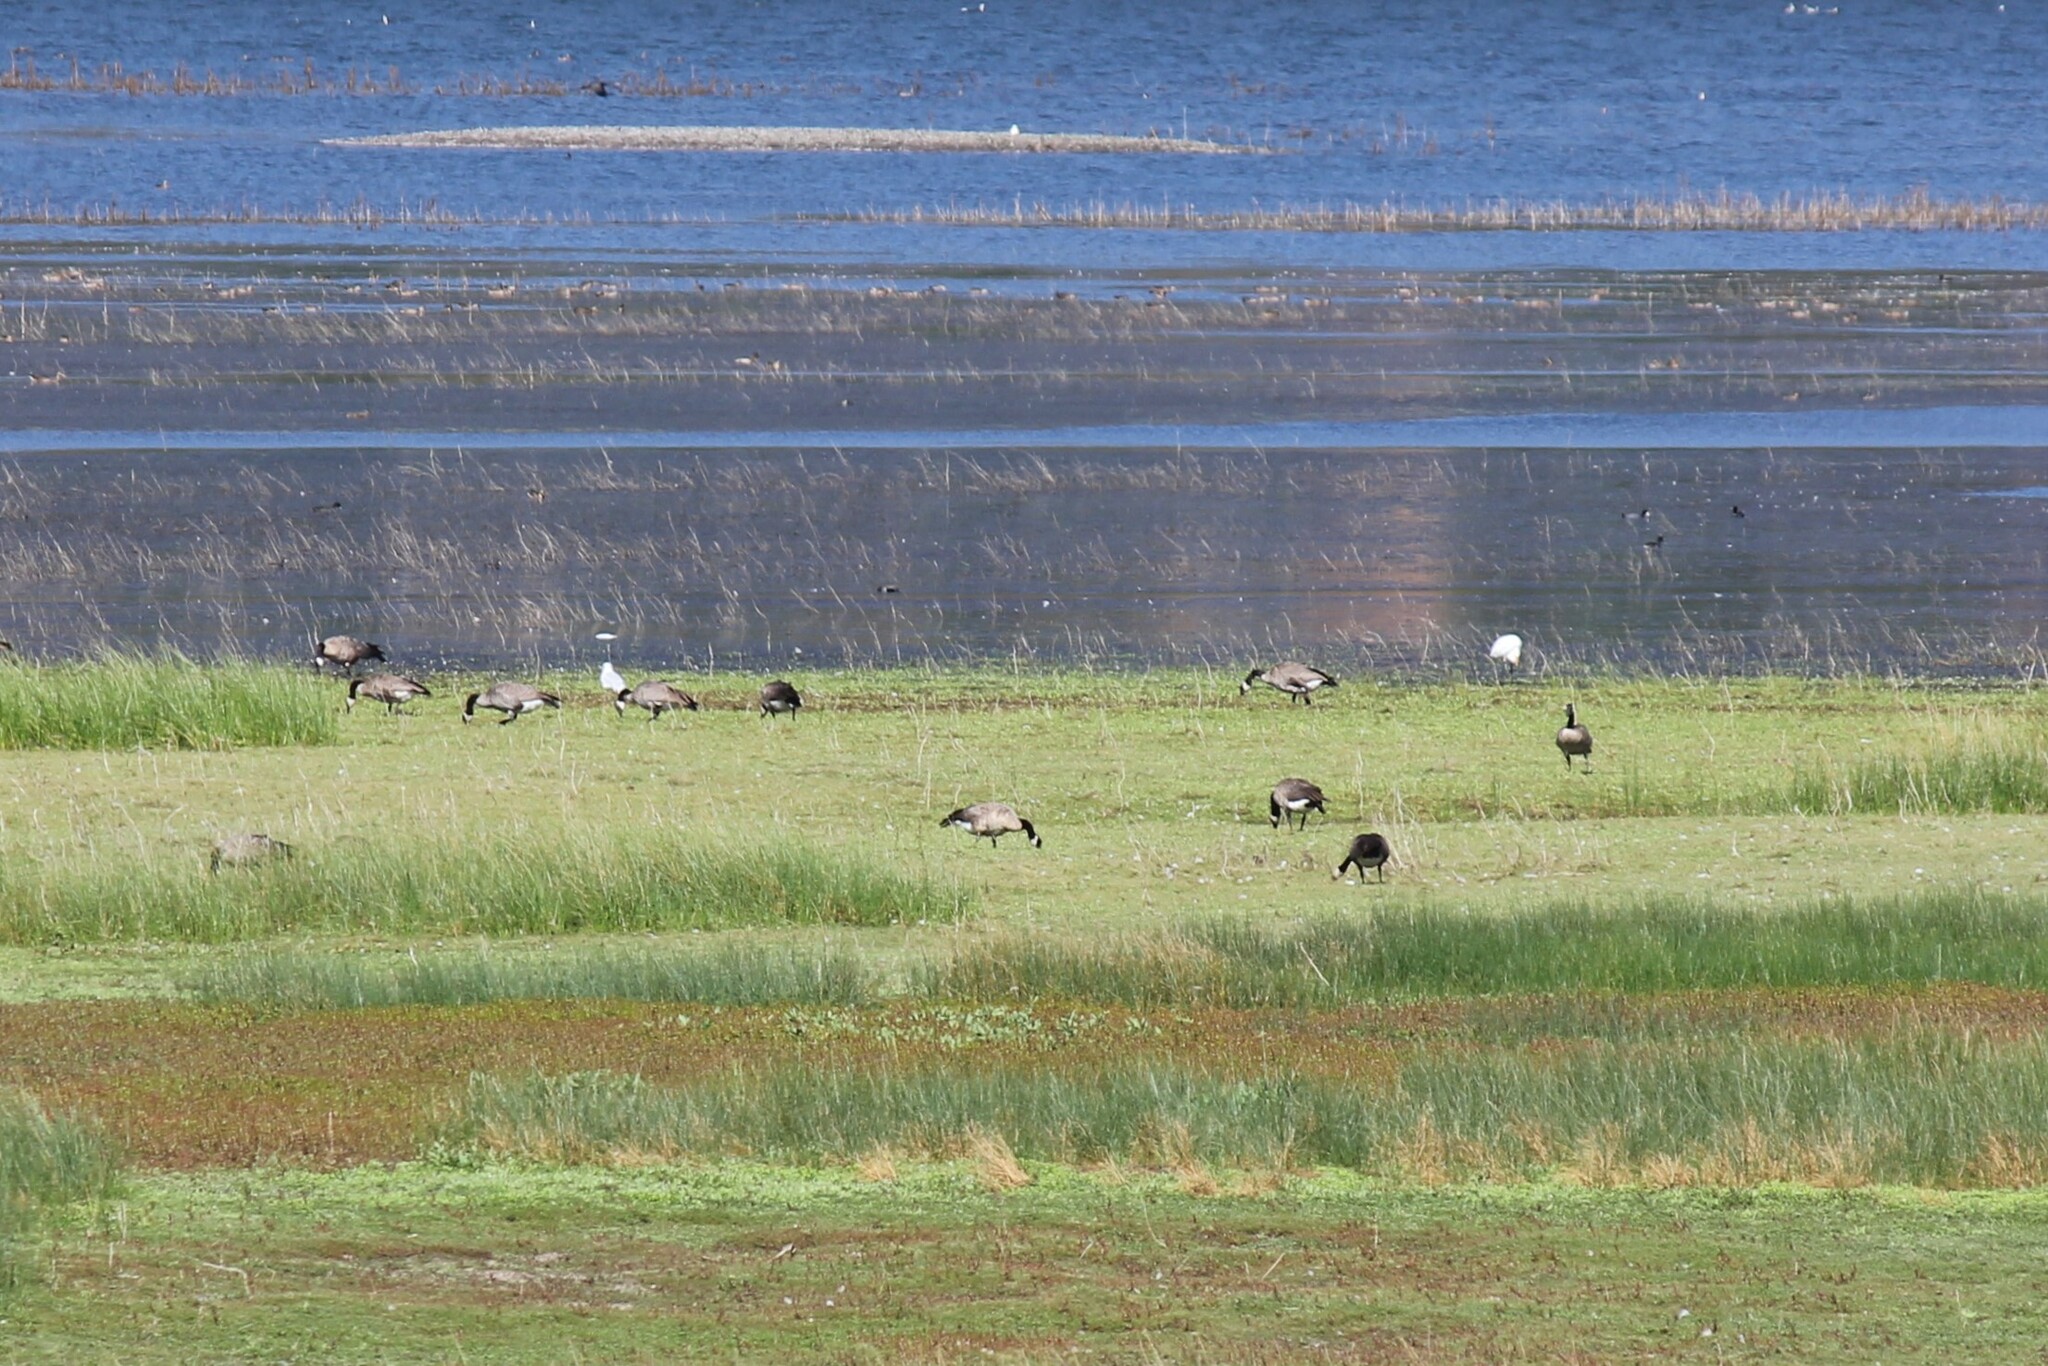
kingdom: Animalia
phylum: Chordata
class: Aves
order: Anseriformes
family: Anatidae
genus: Branta
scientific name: Branta canadensis
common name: Canada goose
